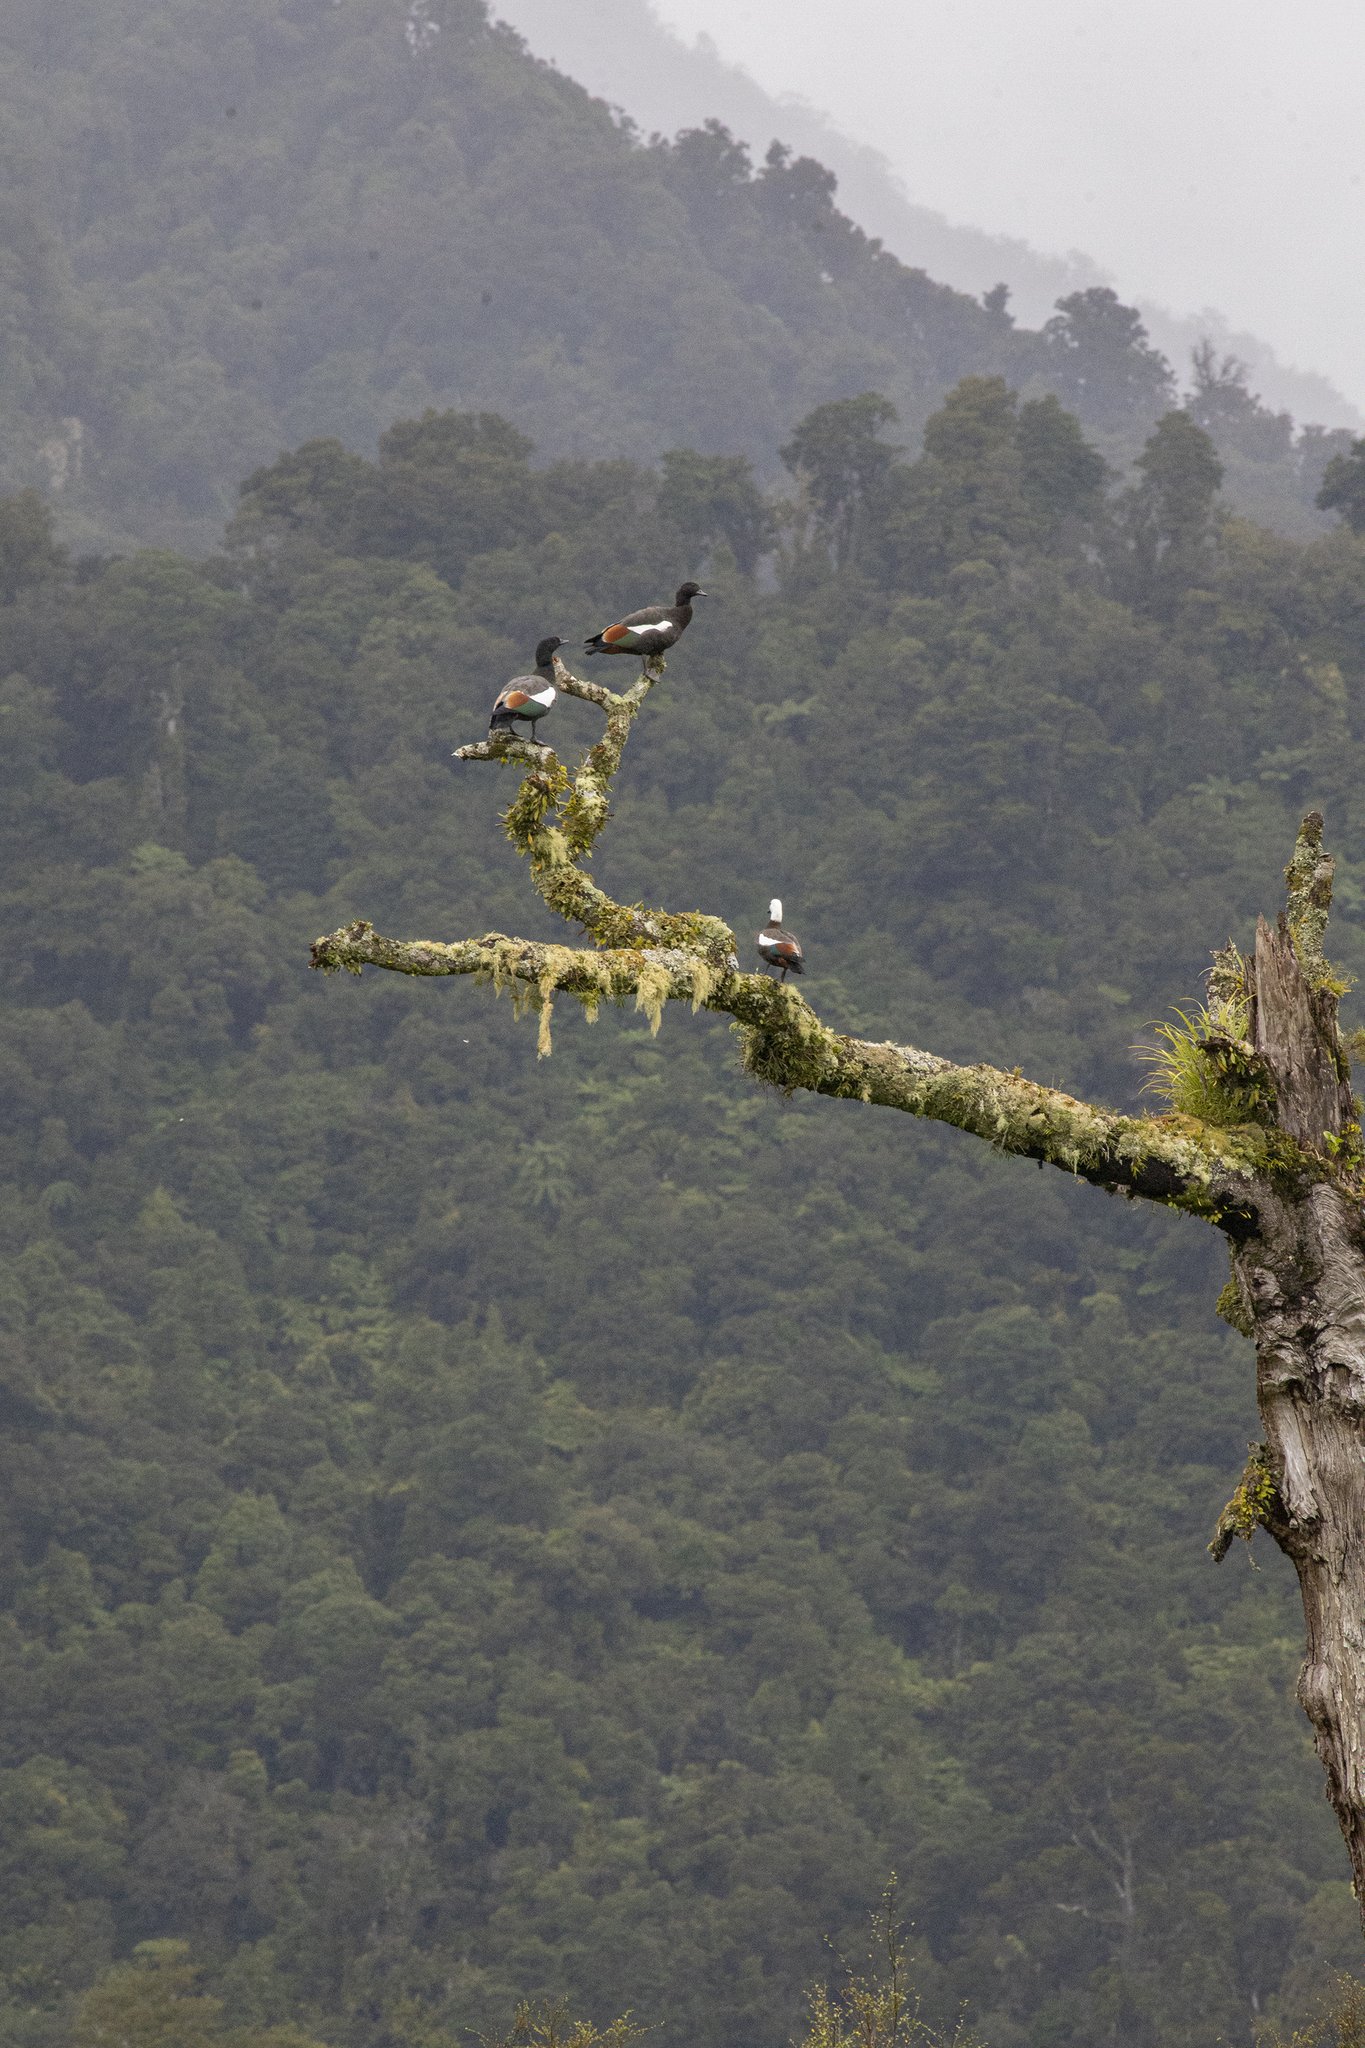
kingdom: Animalia
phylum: Chordata
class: Aves
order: Anseriformes
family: Anatidae
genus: Tadorna
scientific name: Tadorna variegata
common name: Paradise shelduck
